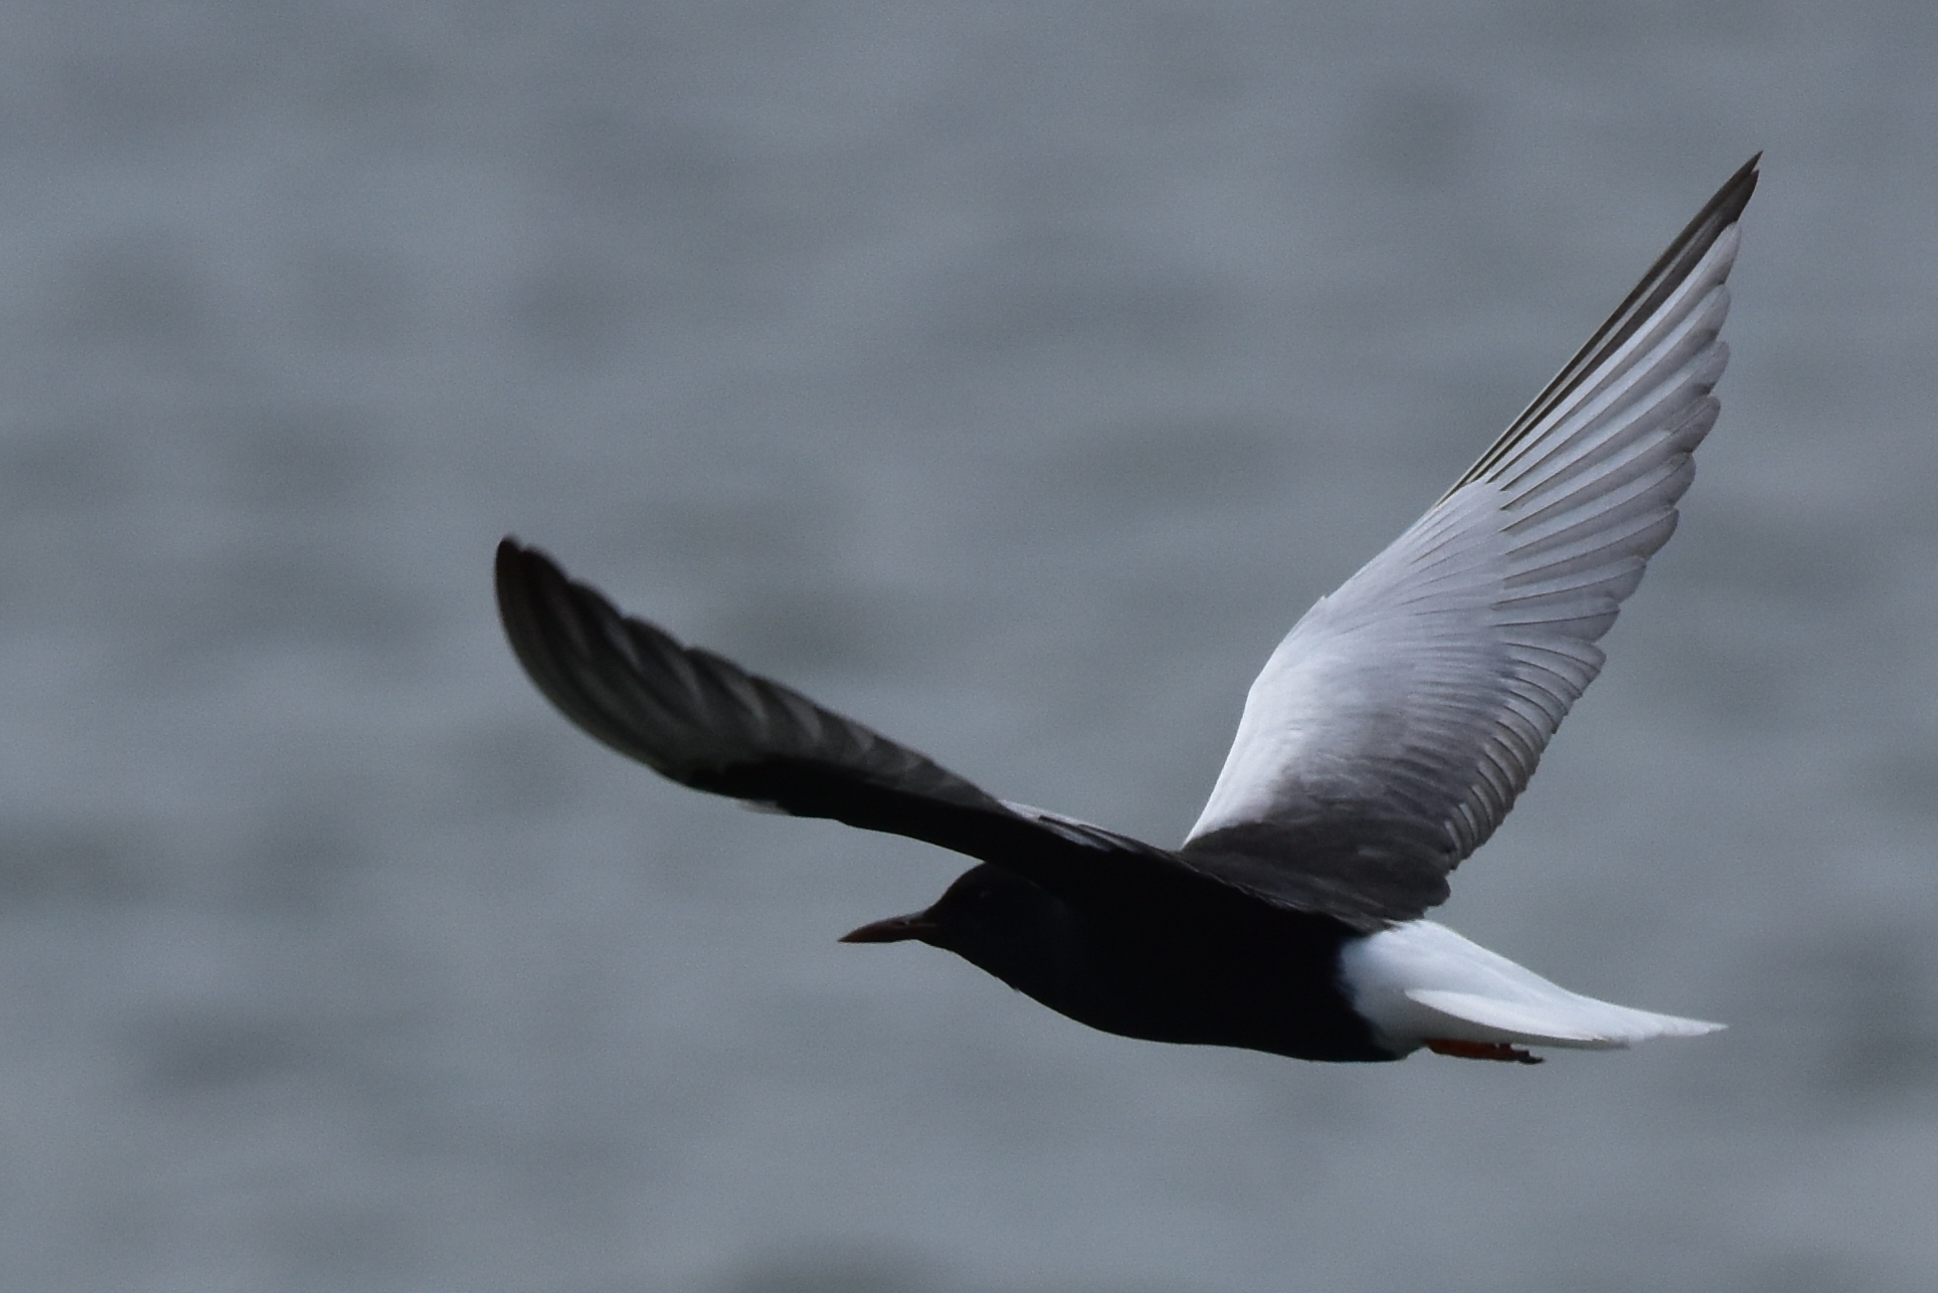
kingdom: Animalia
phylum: Chordata
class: Aves
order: Charadriiformes
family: Laridae
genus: Chlidonias
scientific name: Chlidonias leucopterus
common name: White-winged tern
